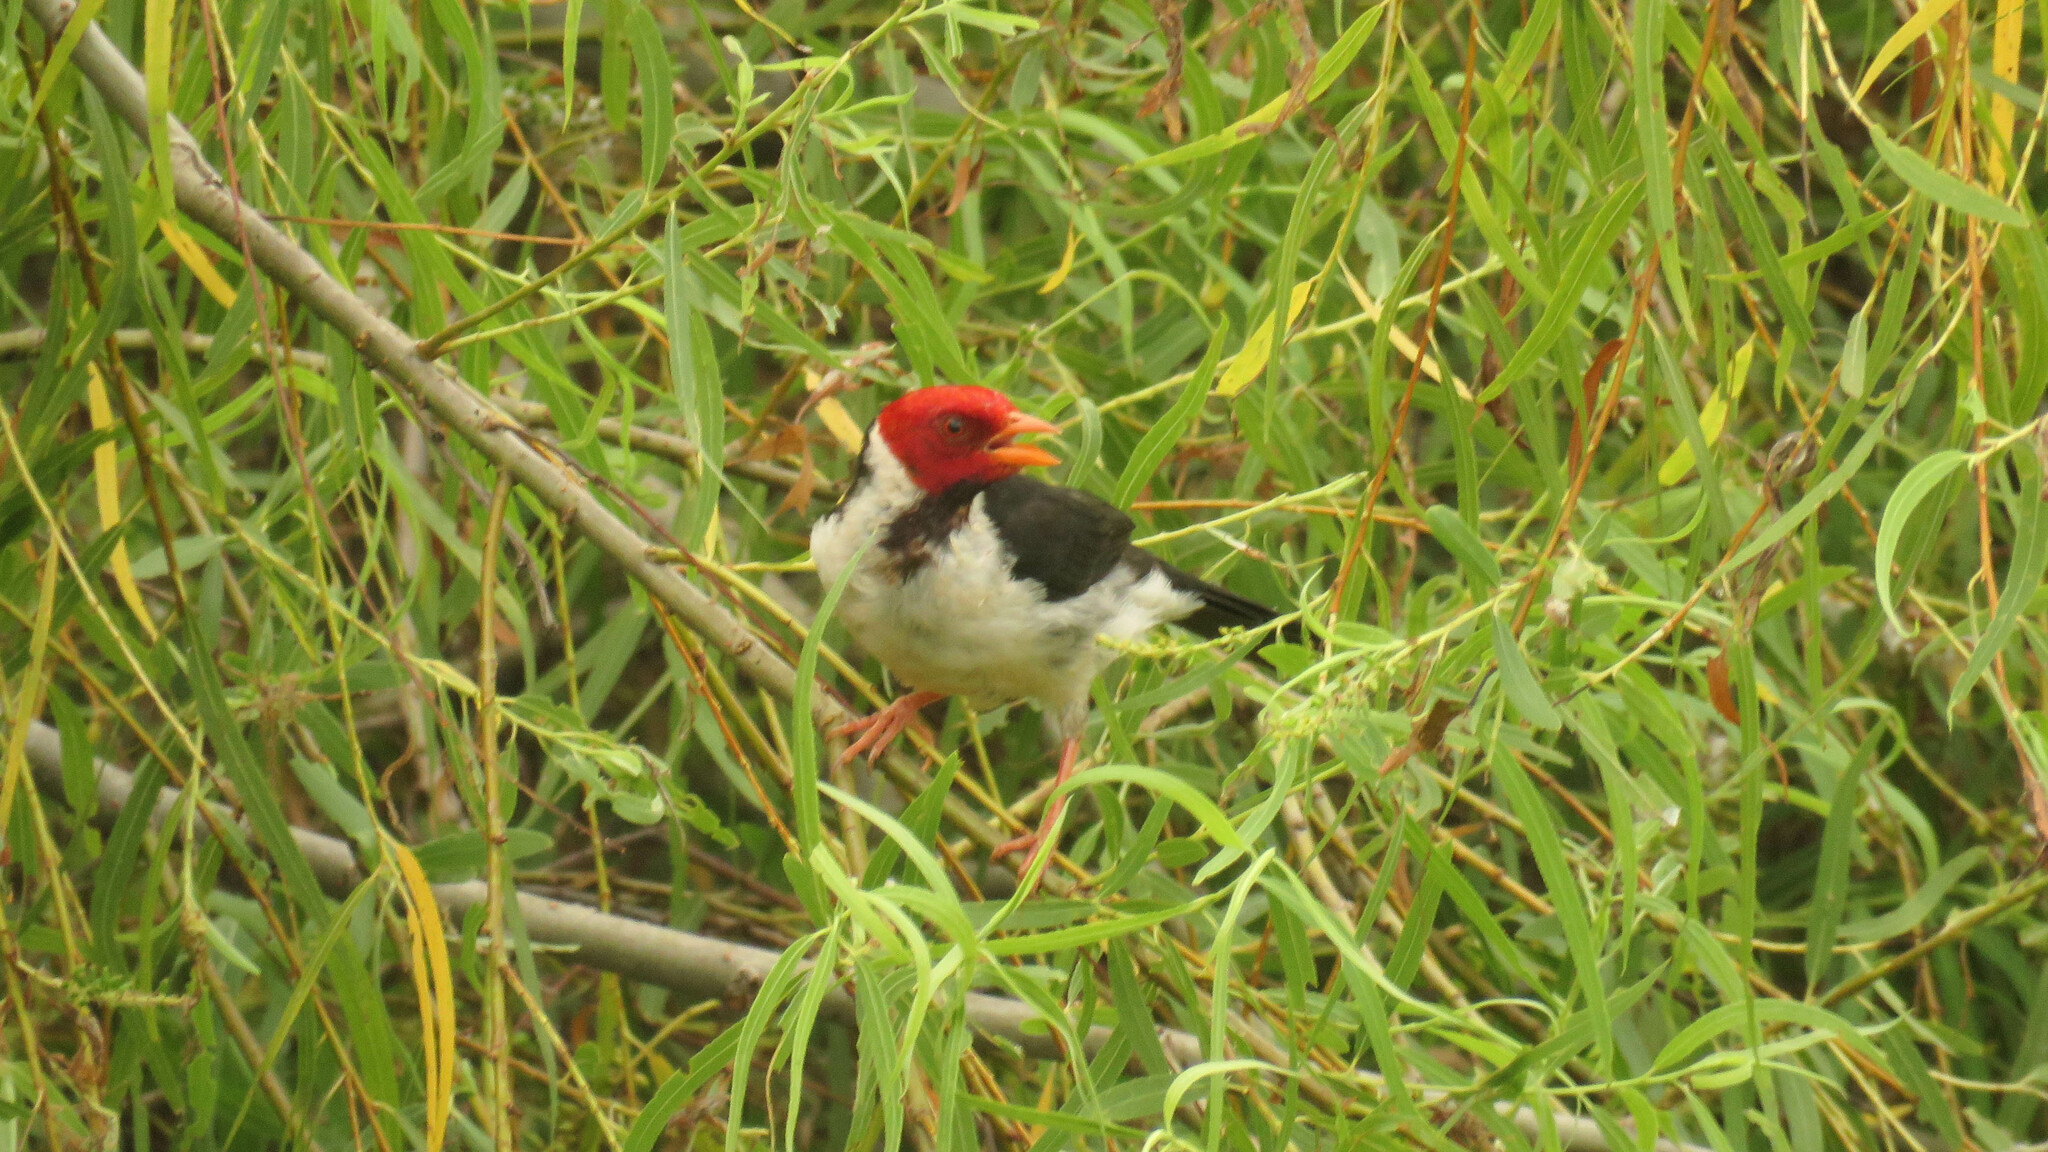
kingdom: Animalia
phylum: Chordata
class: Aves
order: Passeriformes
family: Thraupidae
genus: Paroaria
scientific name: Paroaria capitata
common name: Yellow-billed cardinal
